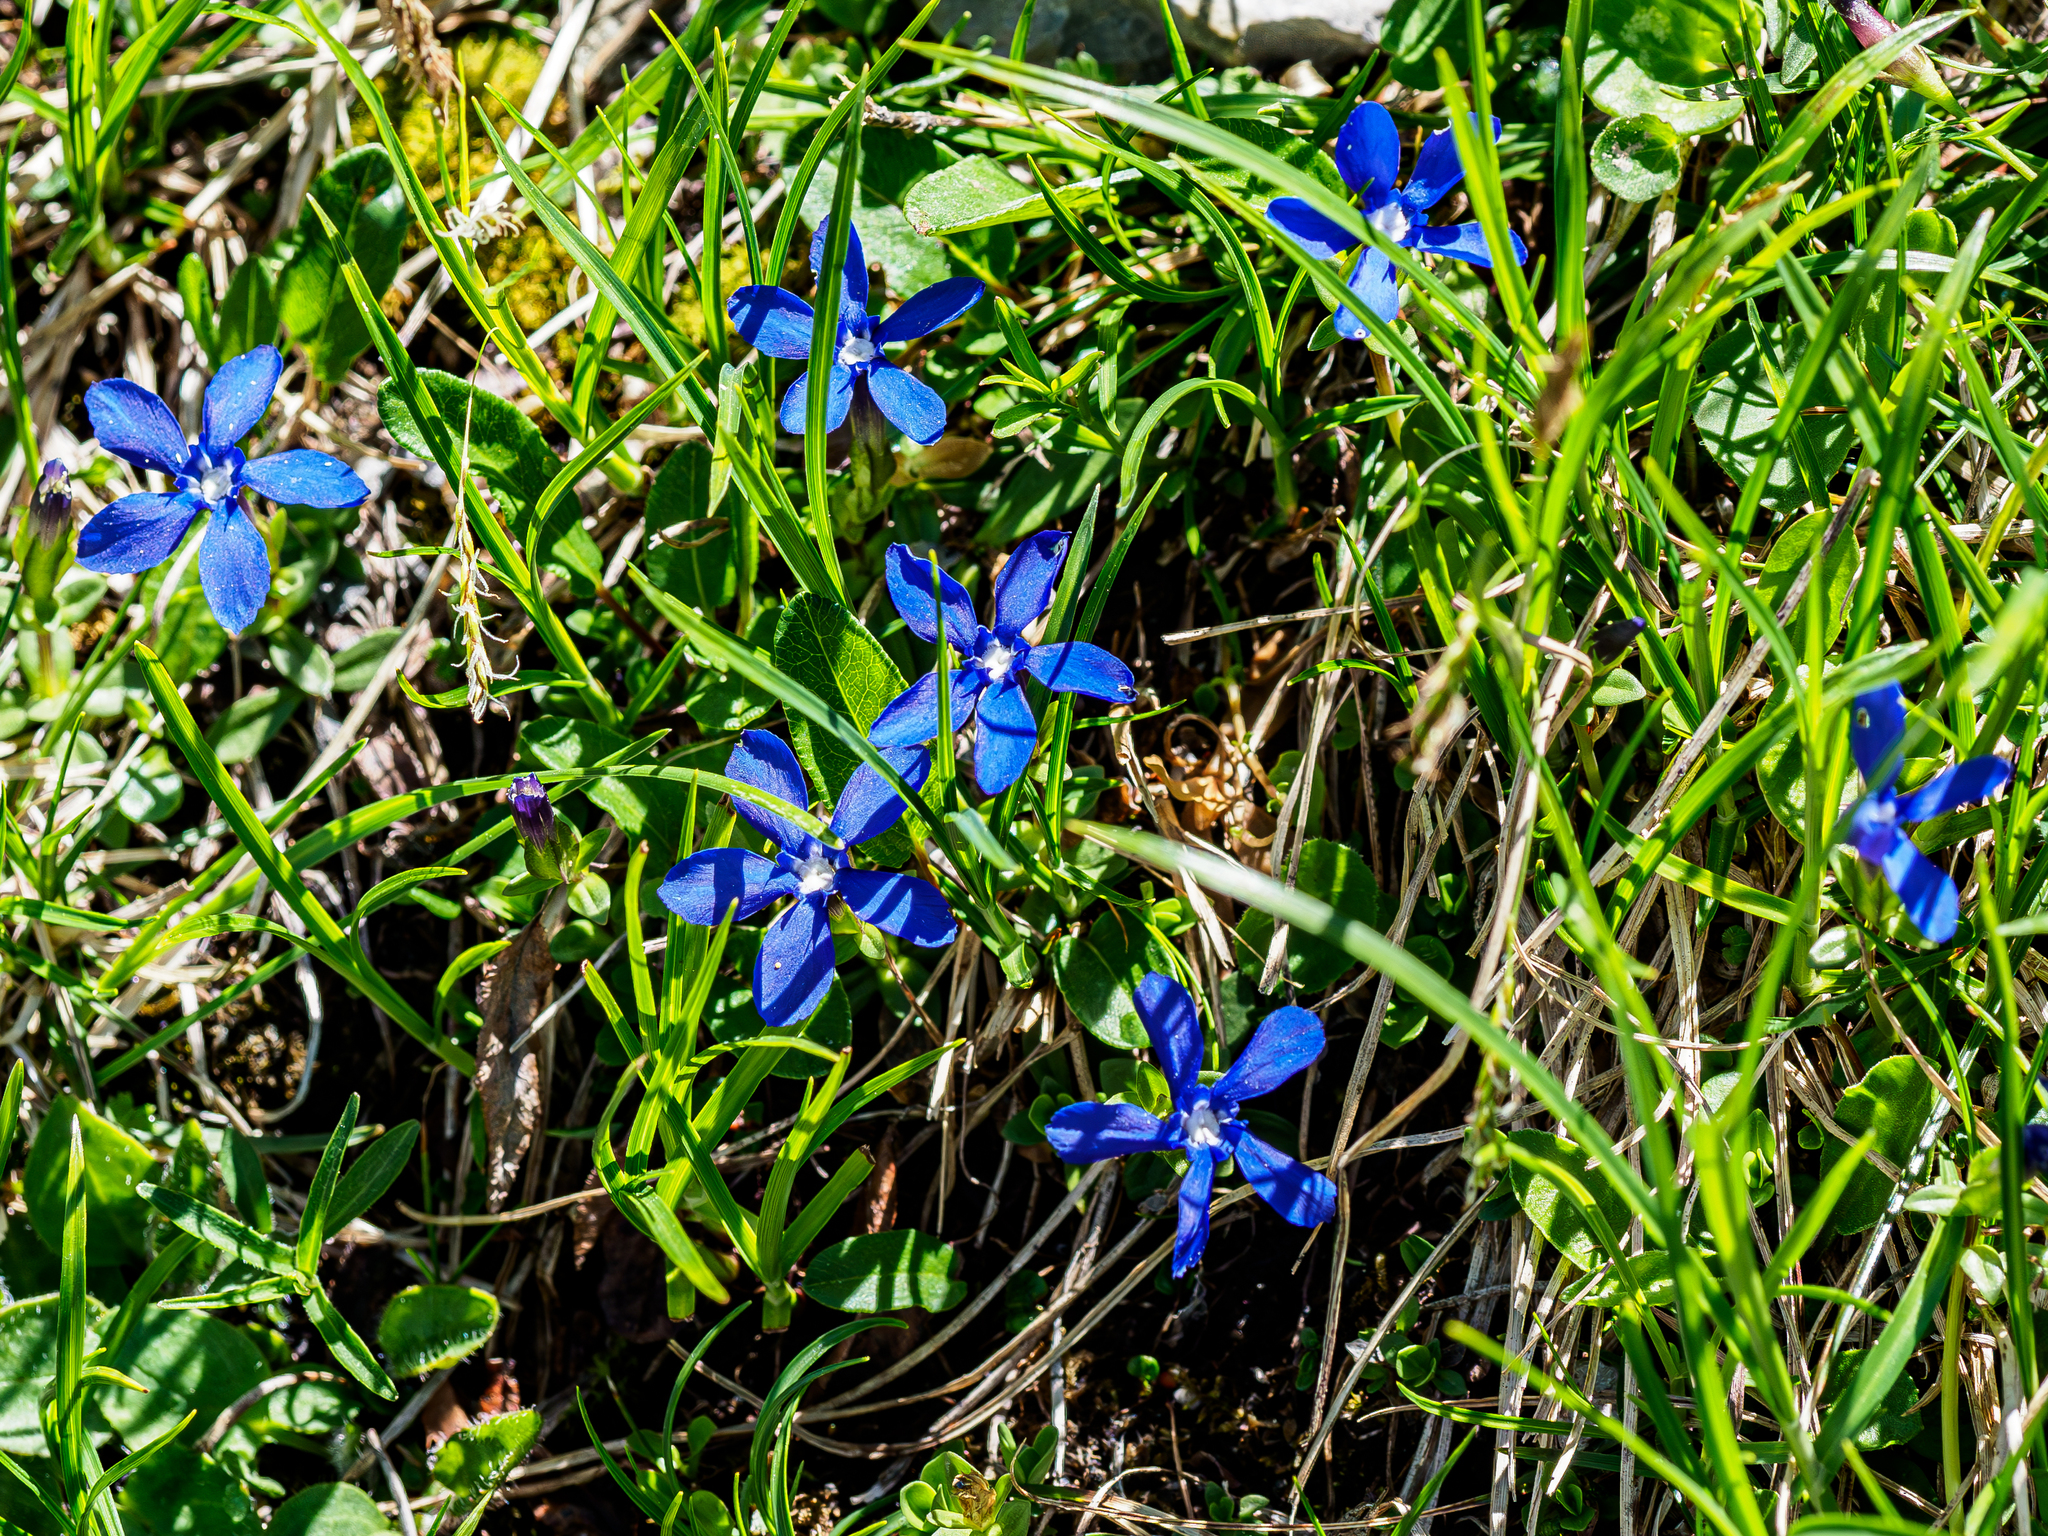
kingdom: Plantae
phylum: Tracheophyta
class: Magnoliopsida
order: Gentianales
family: Gentianaceae
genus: Gentiana
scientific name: Gentiana verna
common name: Spring gentian
